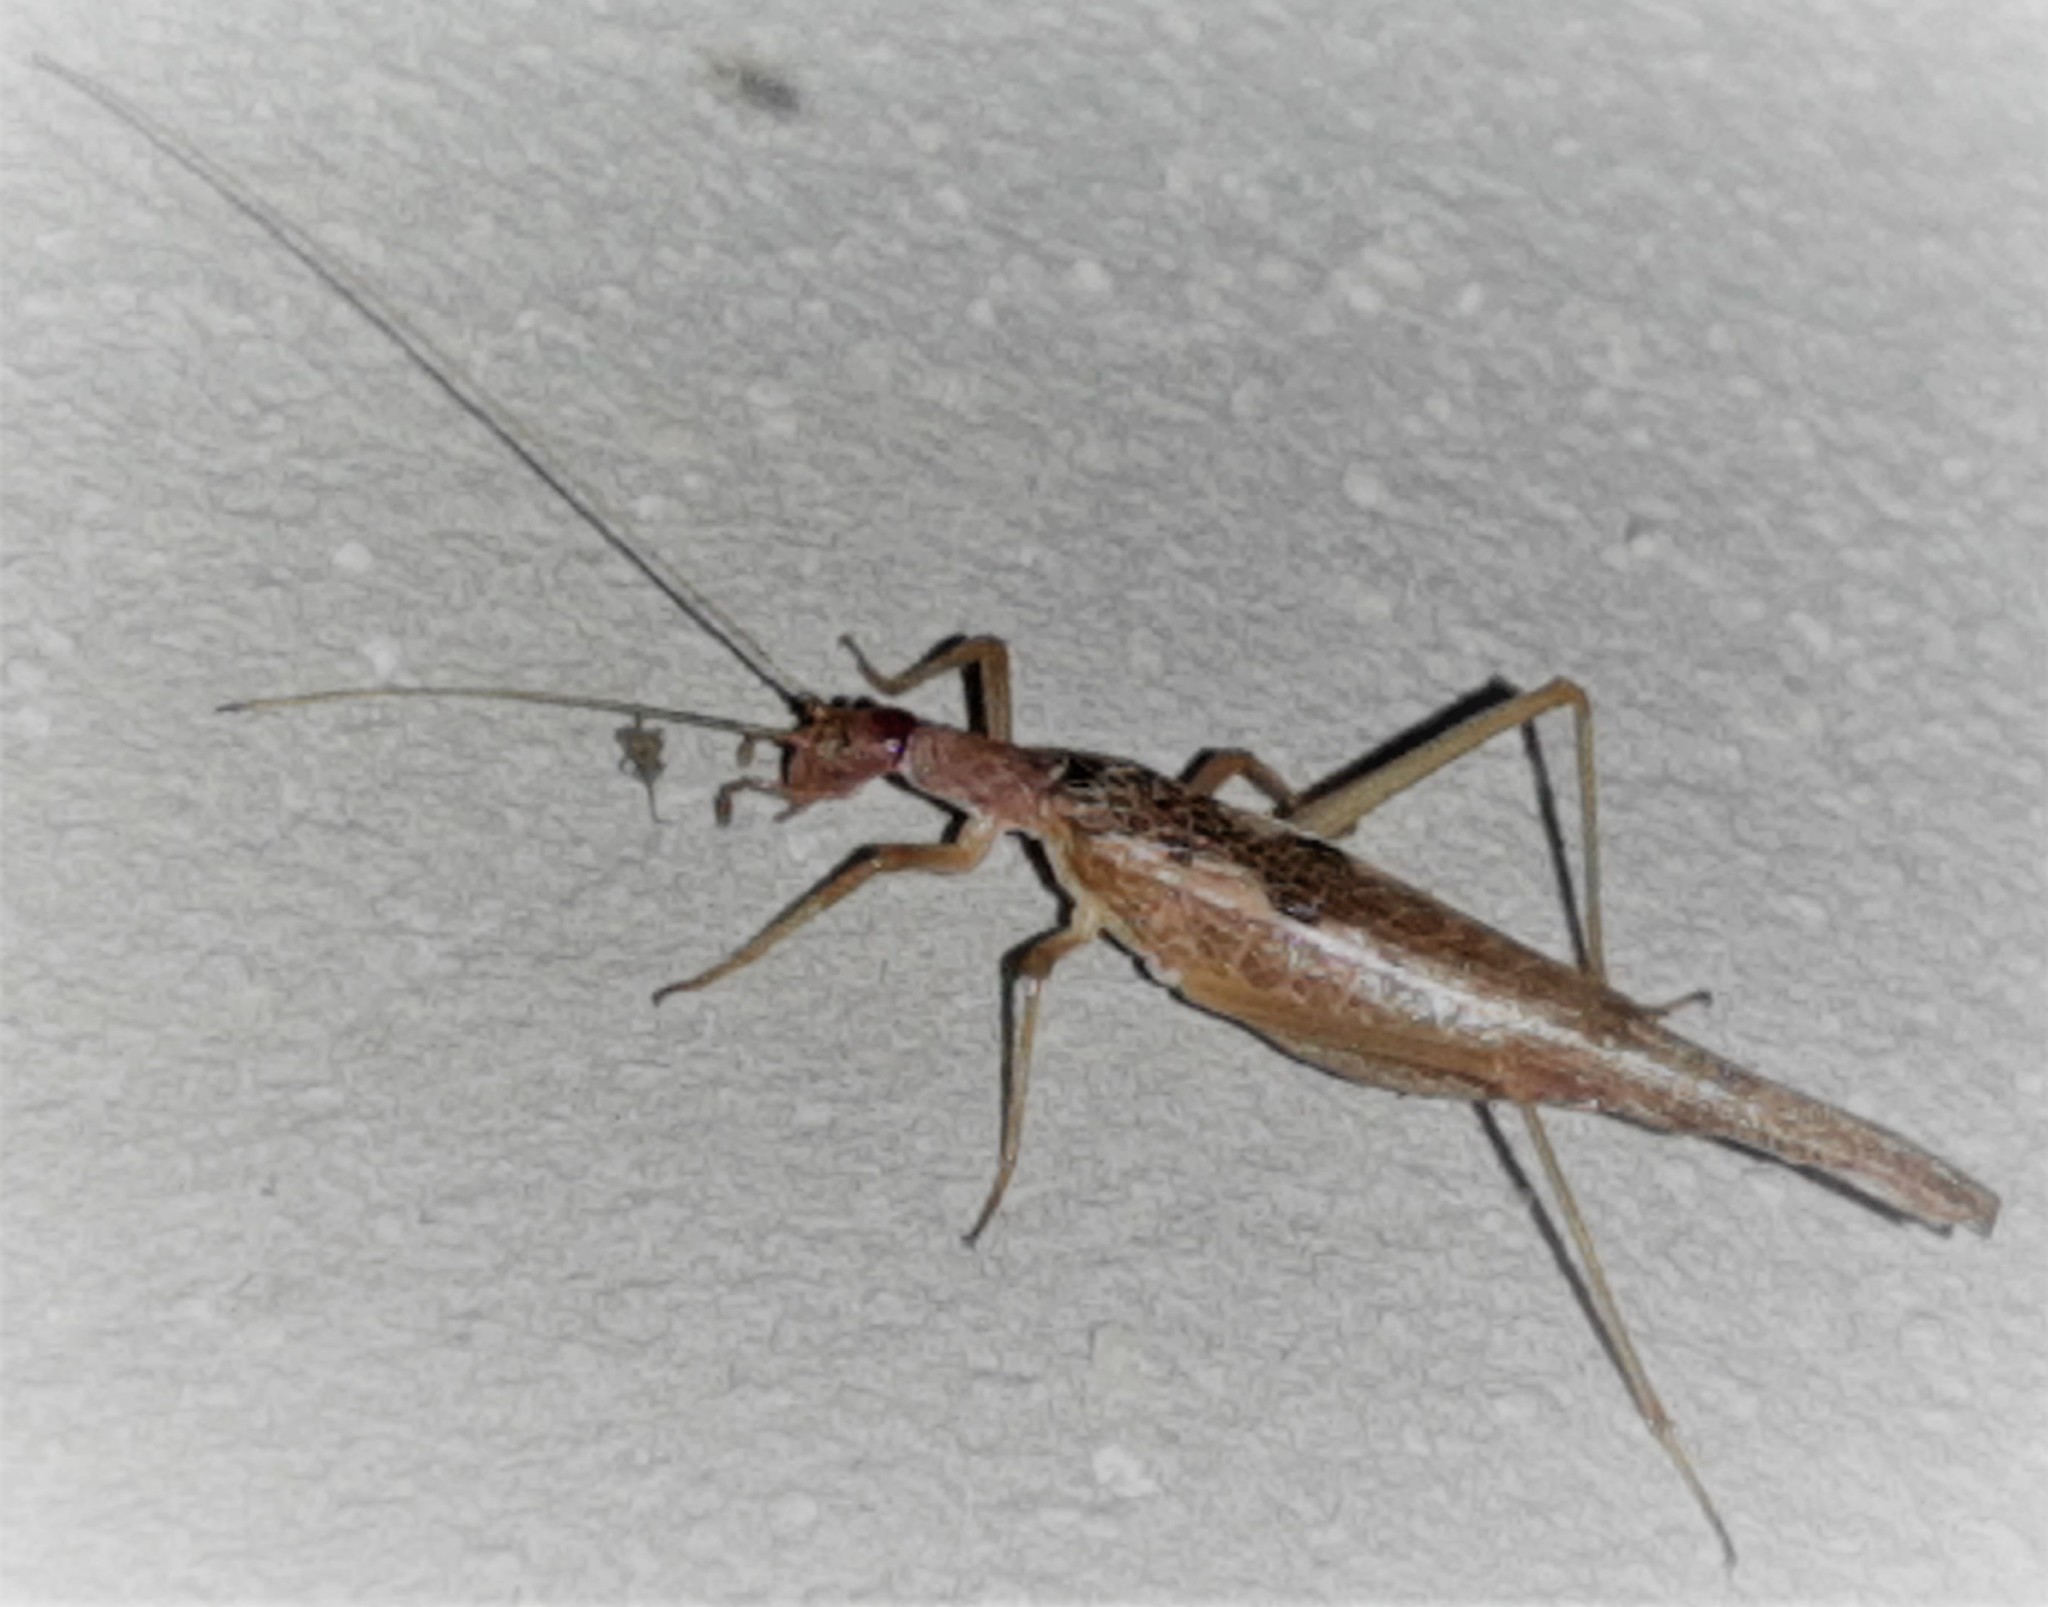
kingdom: Animalia
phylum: Arthropoda
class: Insecta
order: Orthoptera
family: Gryllidae
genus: Neoxabea
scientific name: Neoxabea cerrojesusensis
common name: Nicaragua tree cricket
